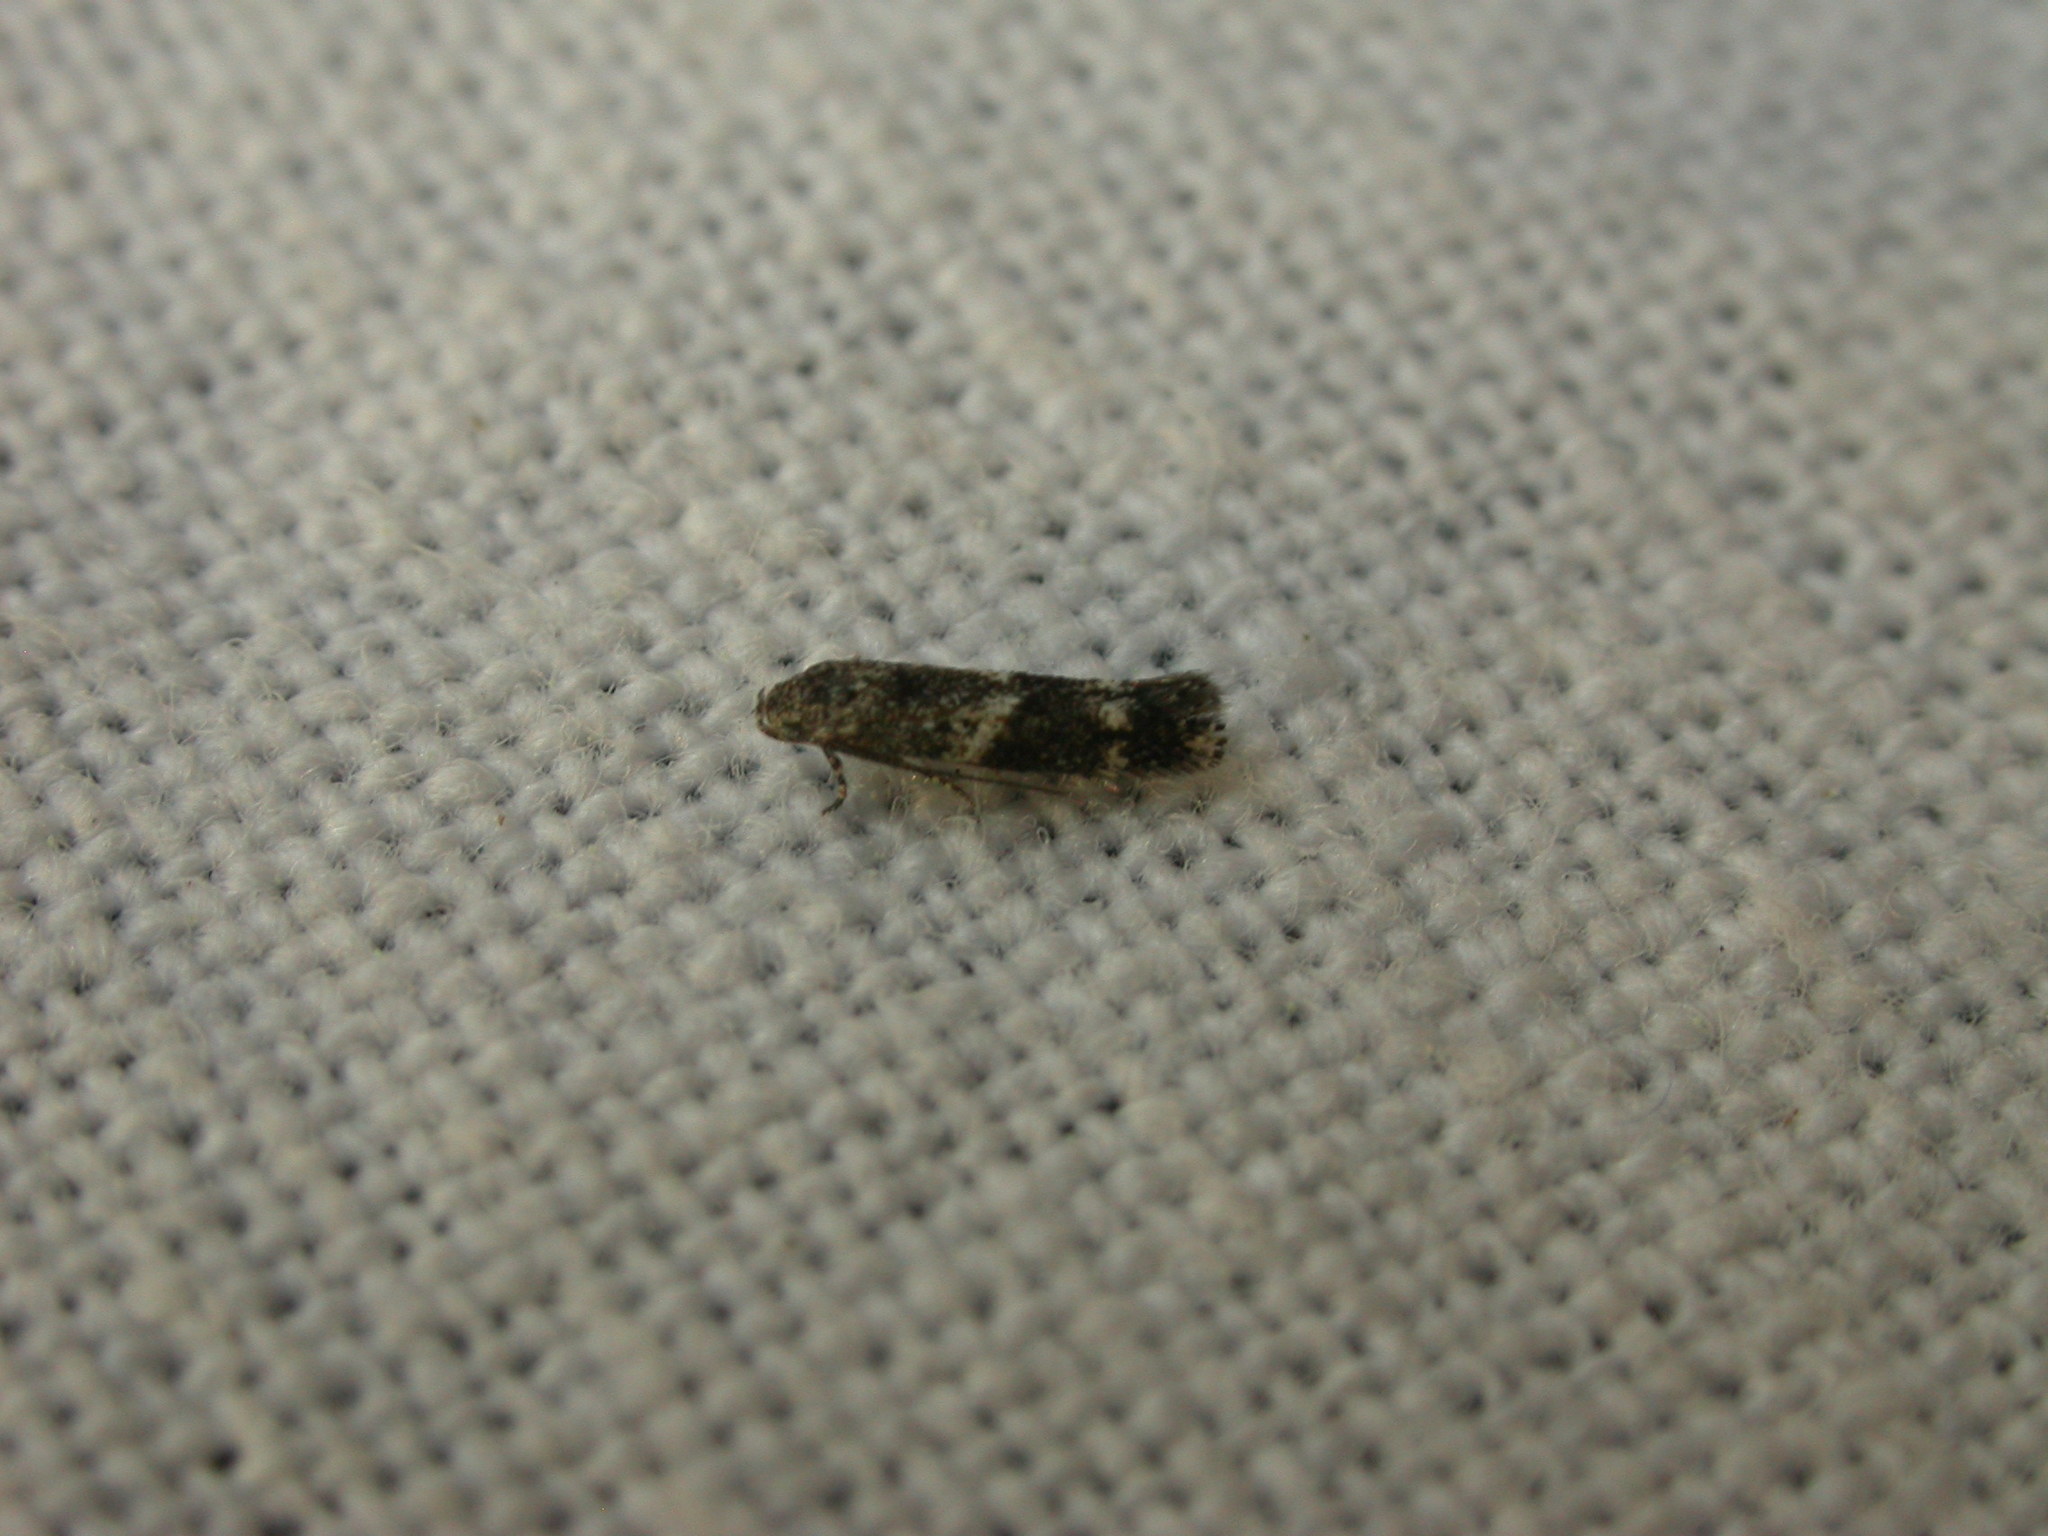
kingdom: Animalia
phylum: Arthropoda
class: Insecta
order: Lepidoptera
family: Elachistidae
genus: Elachista
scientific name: Elachista velox
